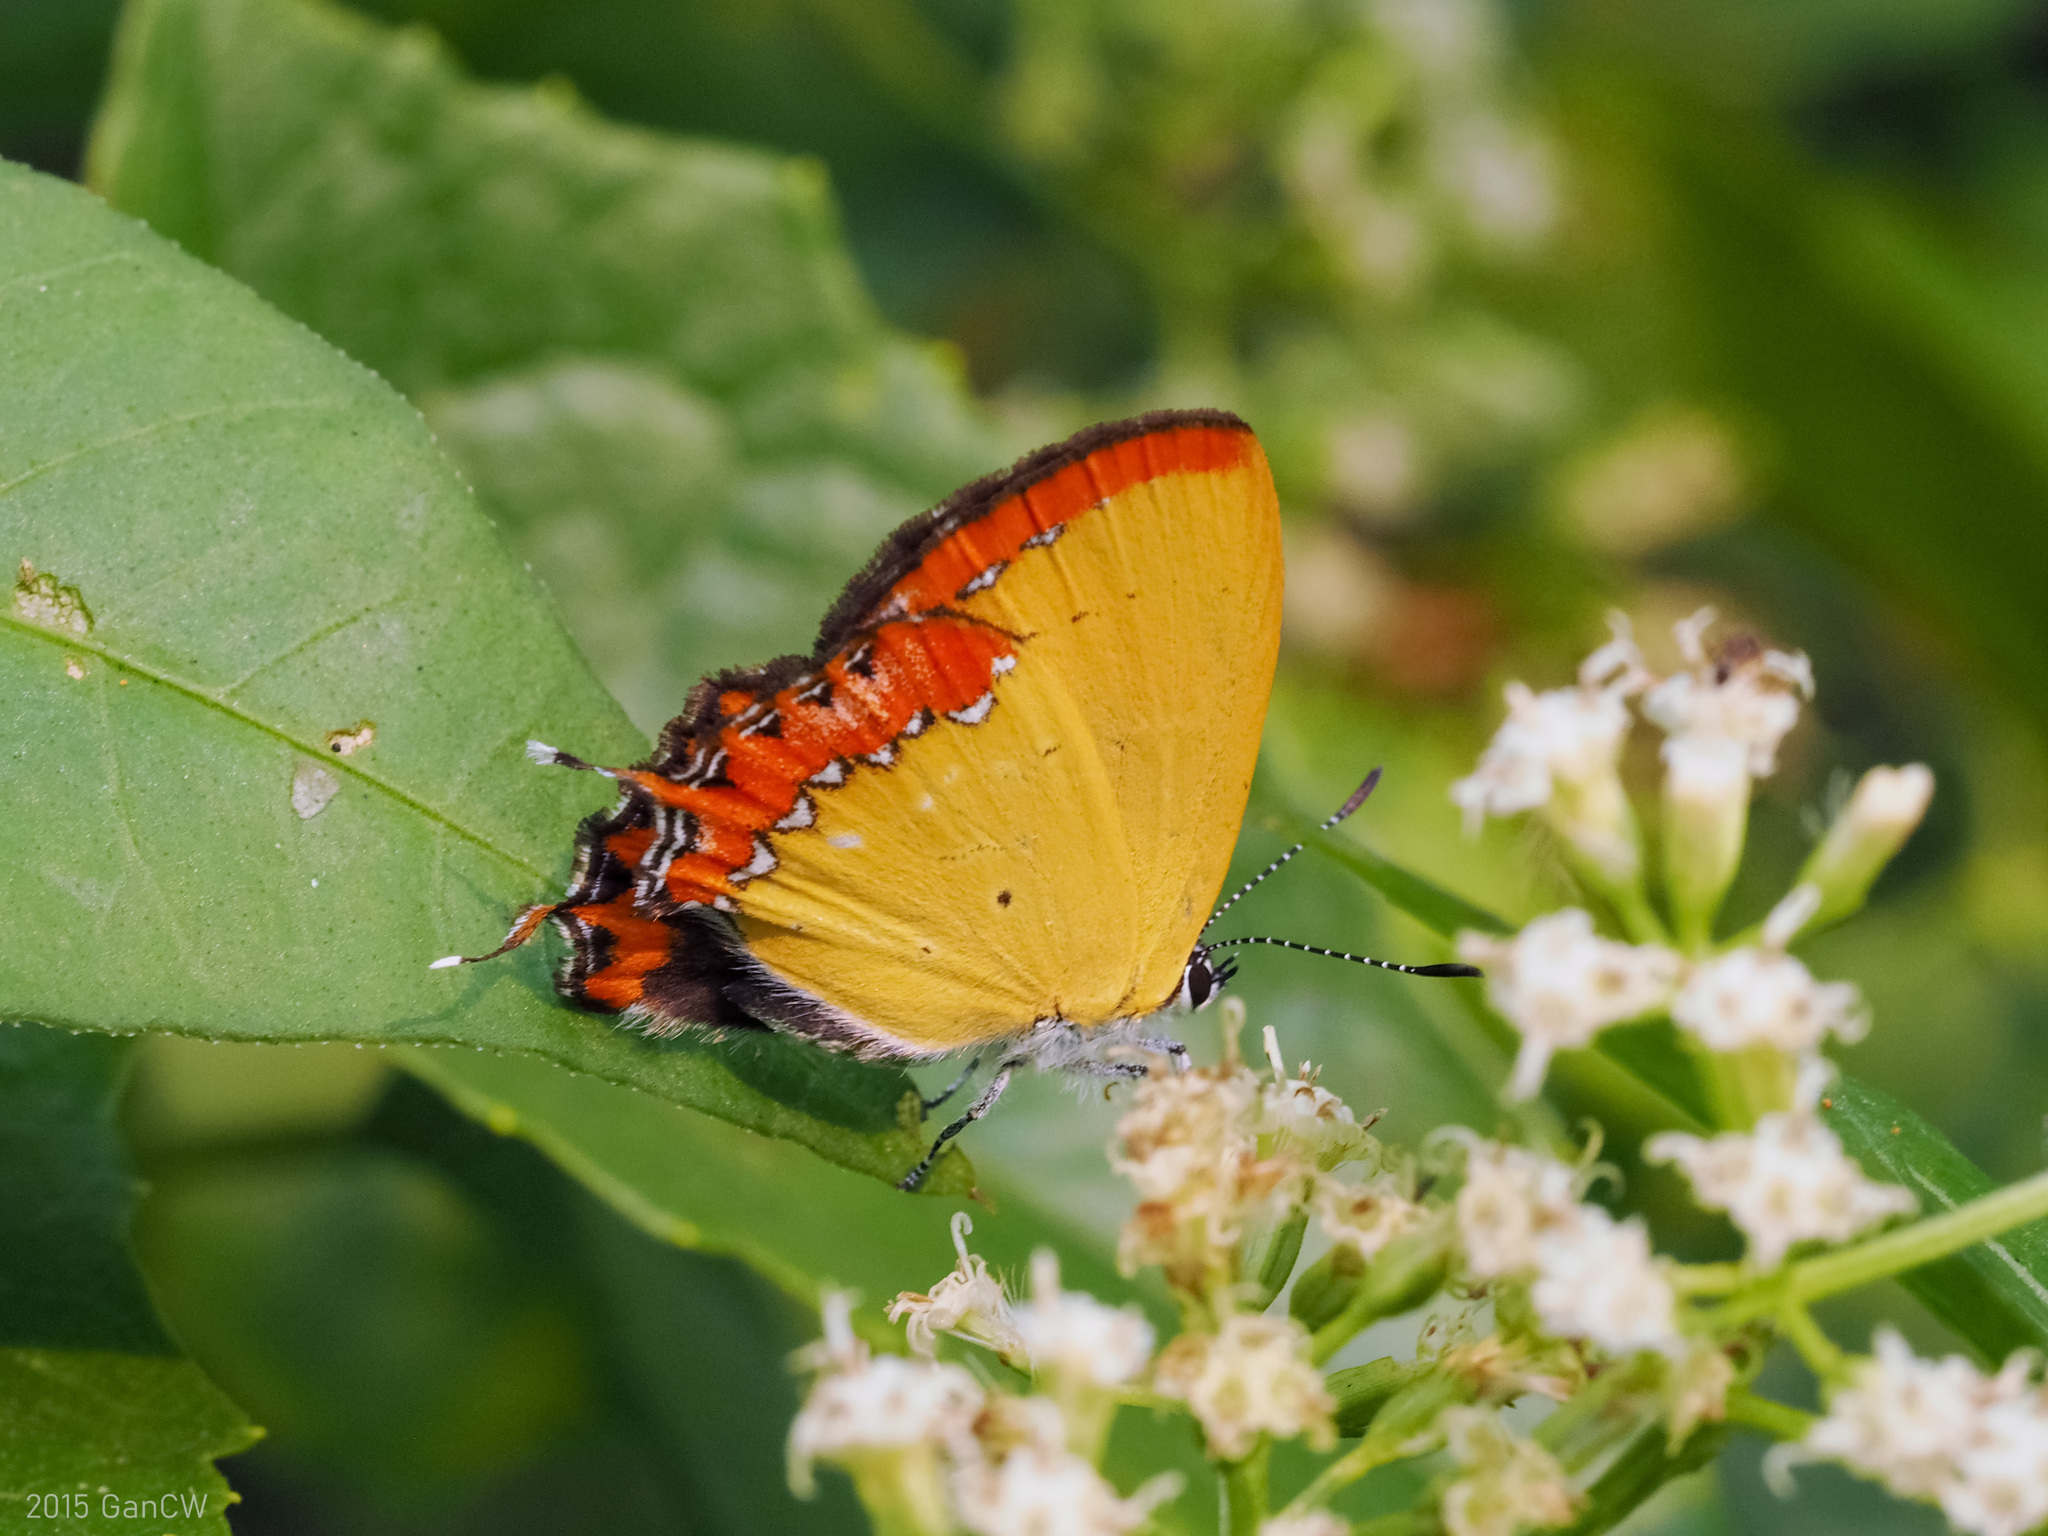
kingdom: Animalia
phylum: Arthropoda
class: Insecta
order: Lepidoptera
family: Lycaenidae
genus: Heliophorus
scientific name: Heliophorus epicles
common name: Purple sapphire
